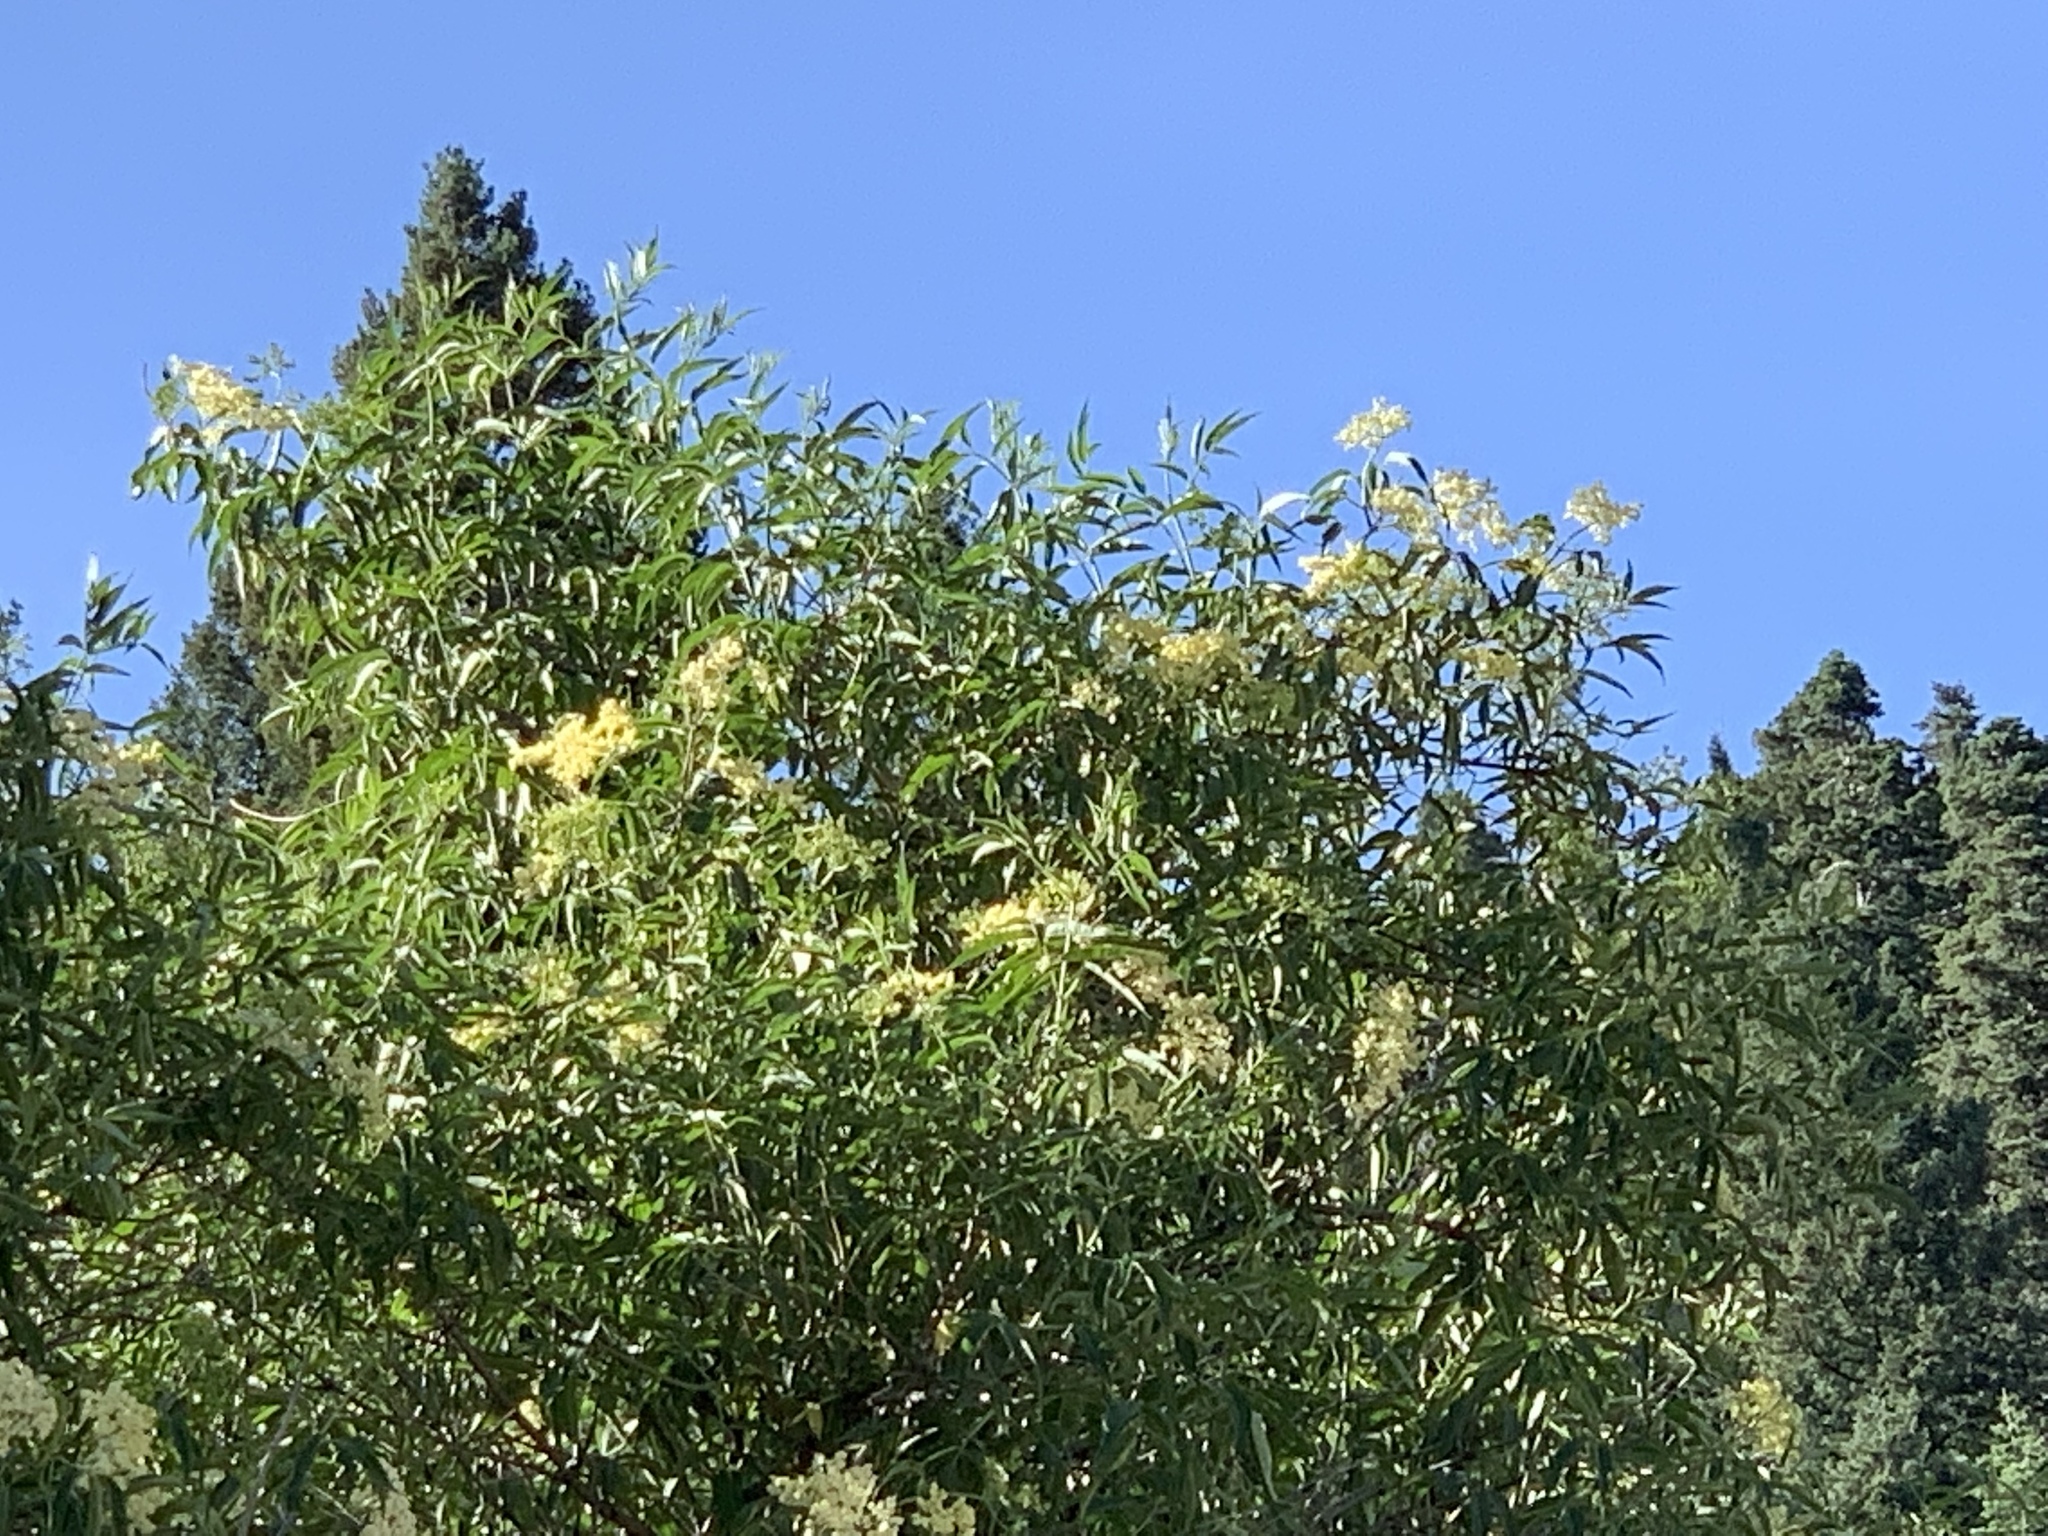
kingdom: Plantae
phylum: Tracheophyta
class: Magnoliopsida
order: Dipsacales
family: Viburnaceae
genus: Sambucus
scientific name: Sambucus cerulea
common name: Blue elder
